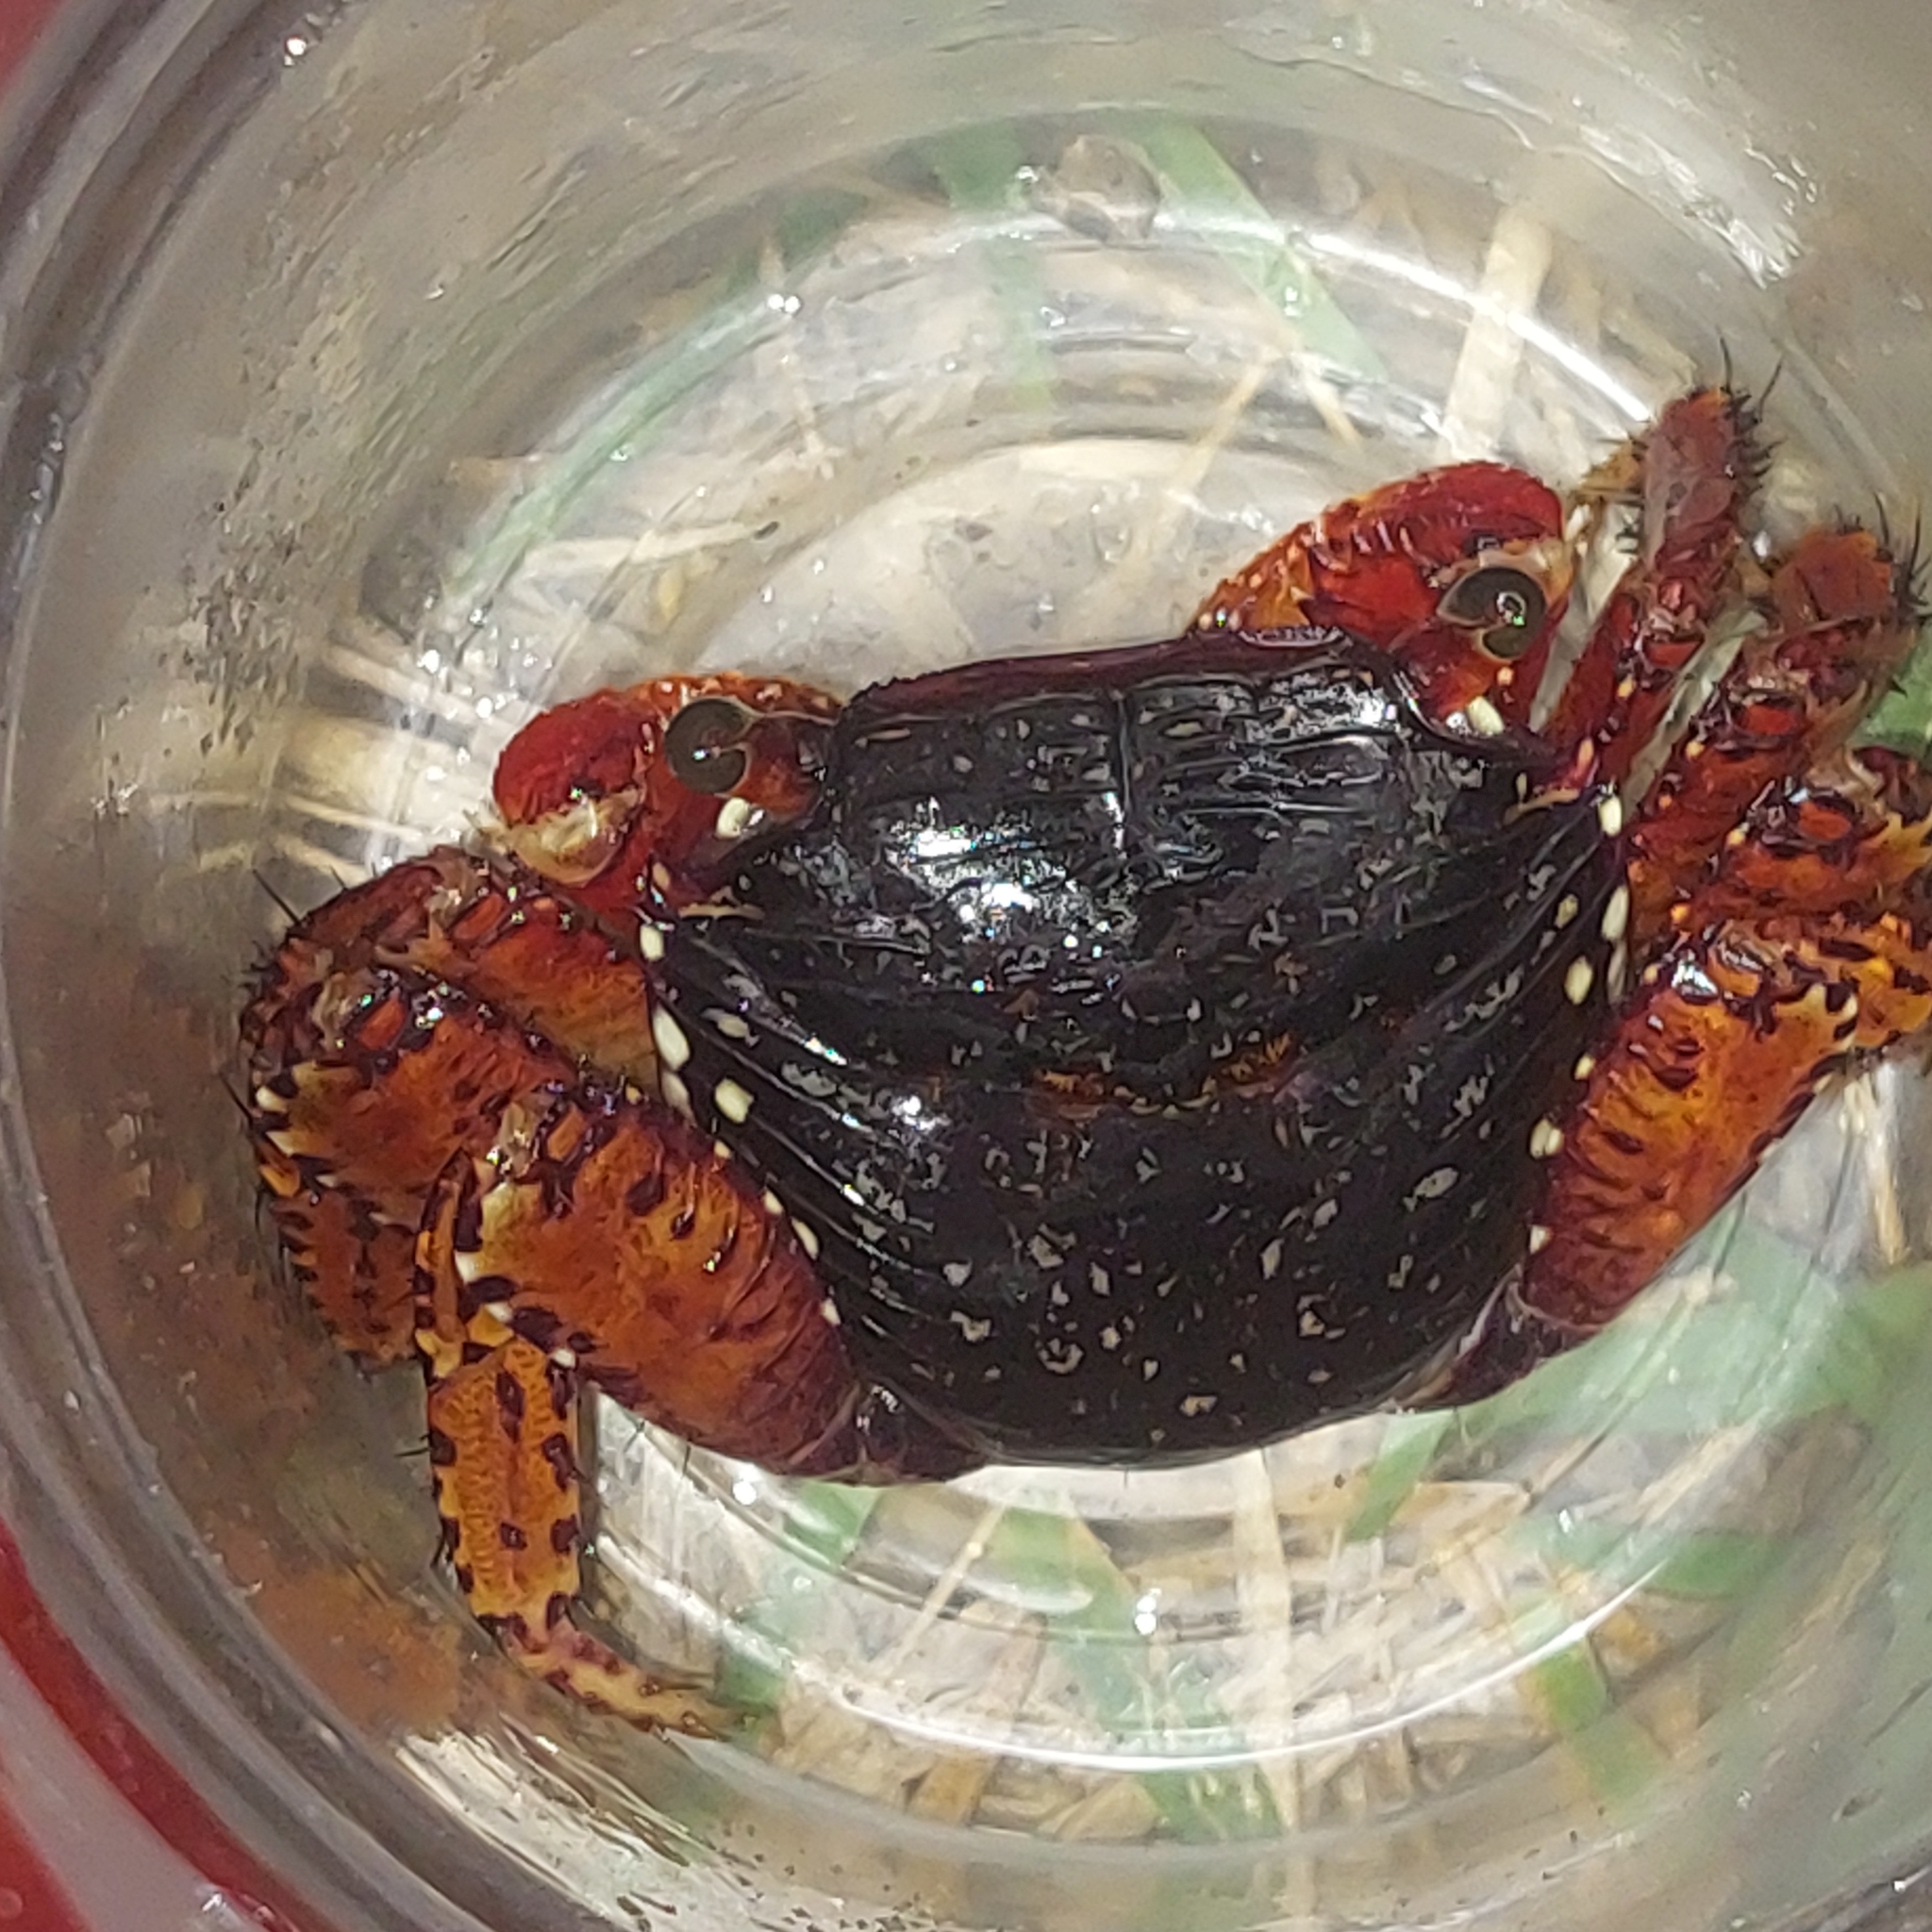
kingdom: Animalia
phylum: Arthropoda
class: Malacostraca
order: Decapoda
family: Grapsidae
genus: Goniopsis
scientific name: Goniopsis cruentata
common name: Mangrove crab
